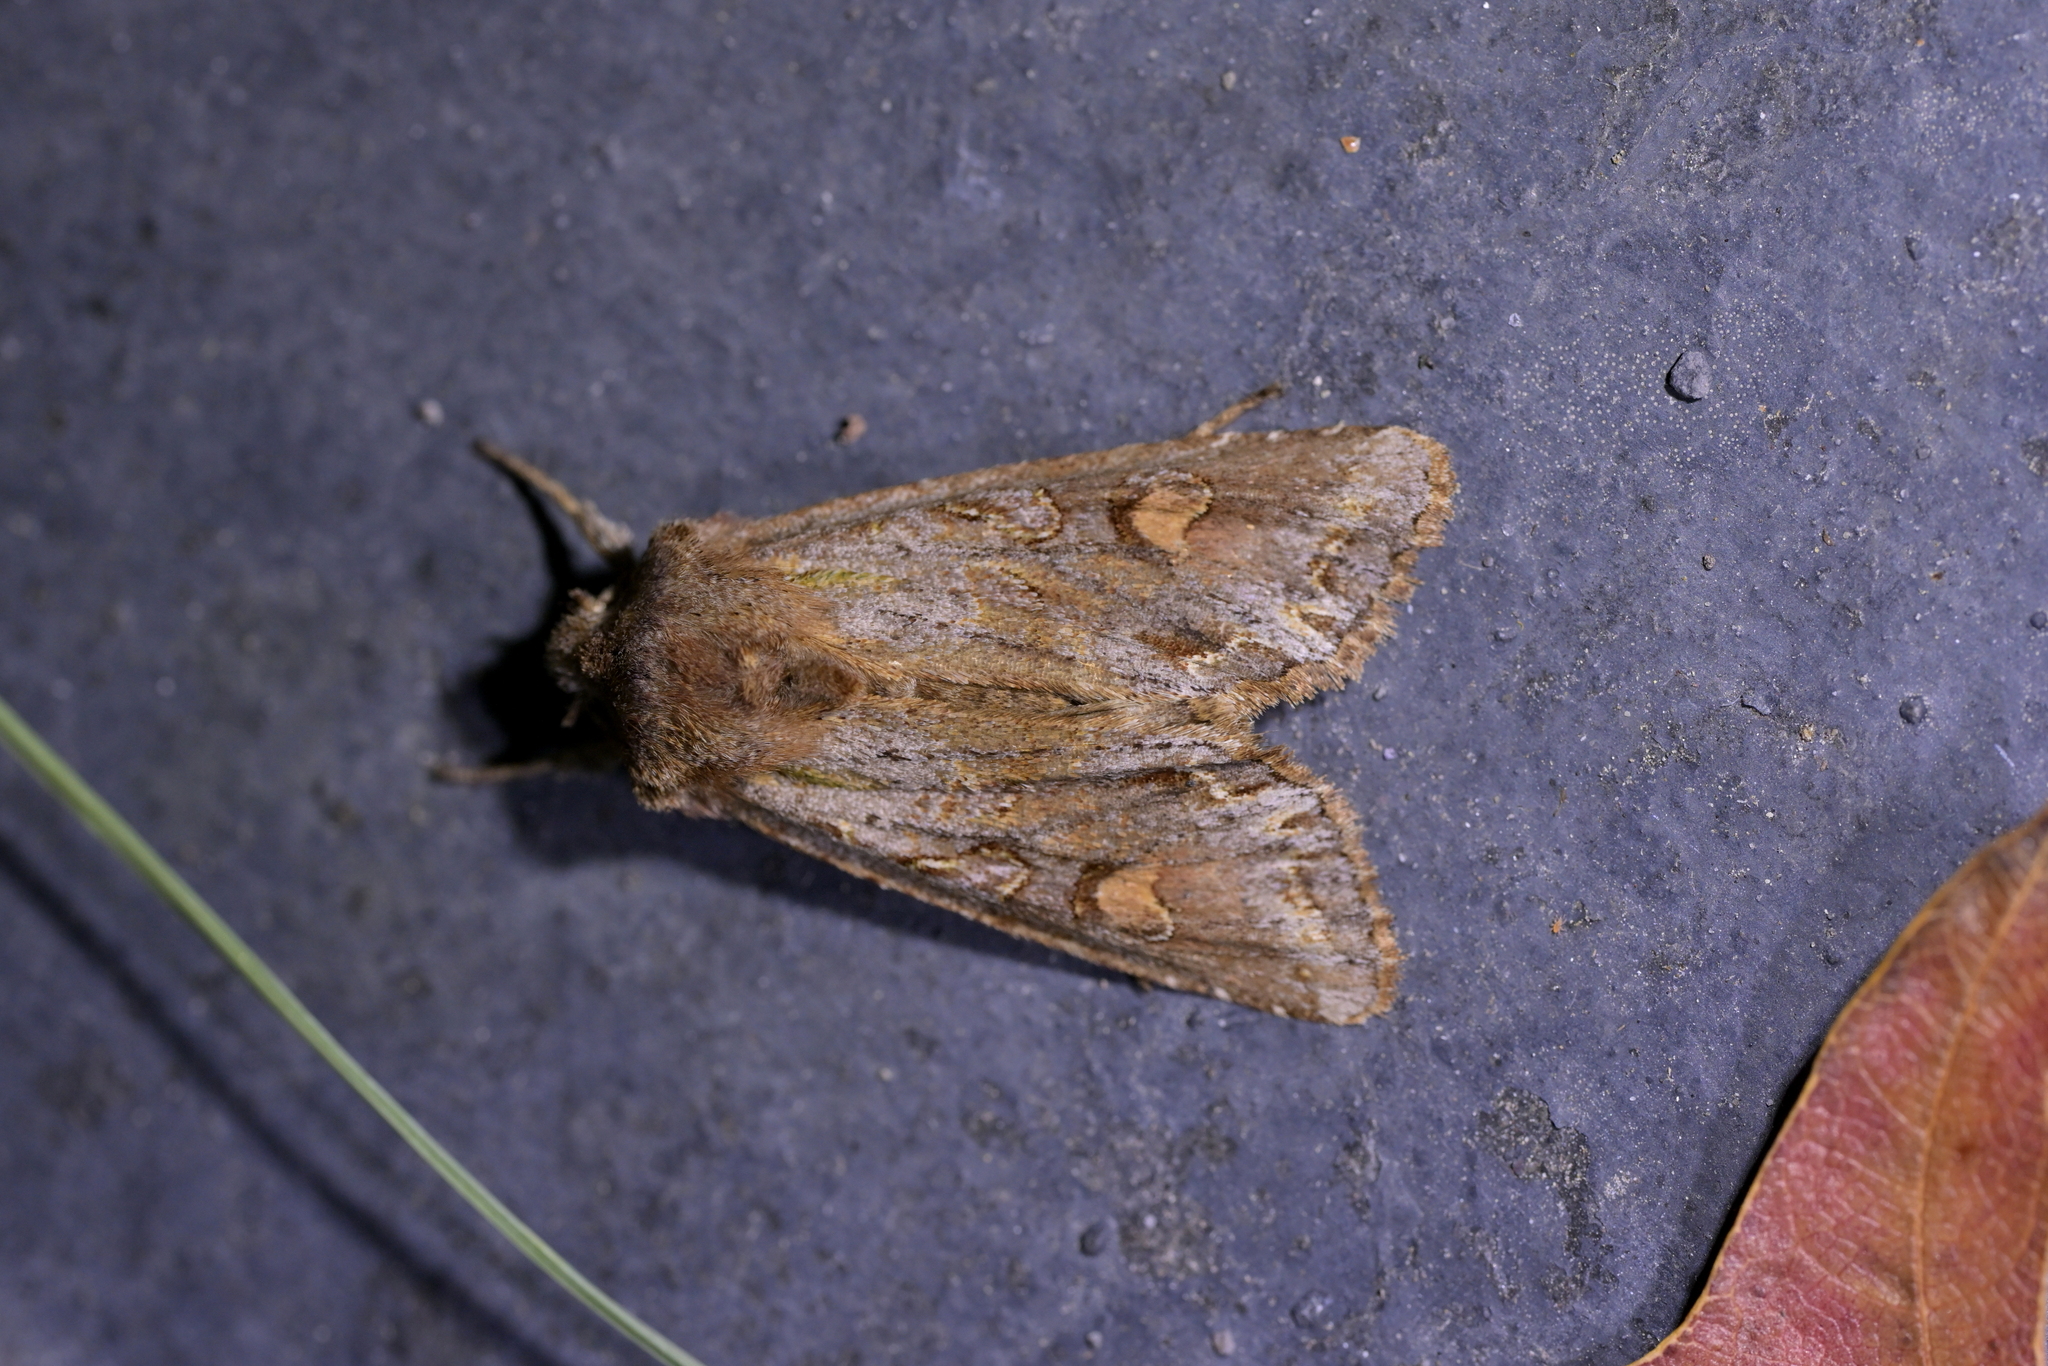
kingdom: Animalia
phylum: Arthropoda
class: Insecta
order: Lepidoptera
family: Noctuidae
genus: Ichneutica
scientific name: Ichneutica
